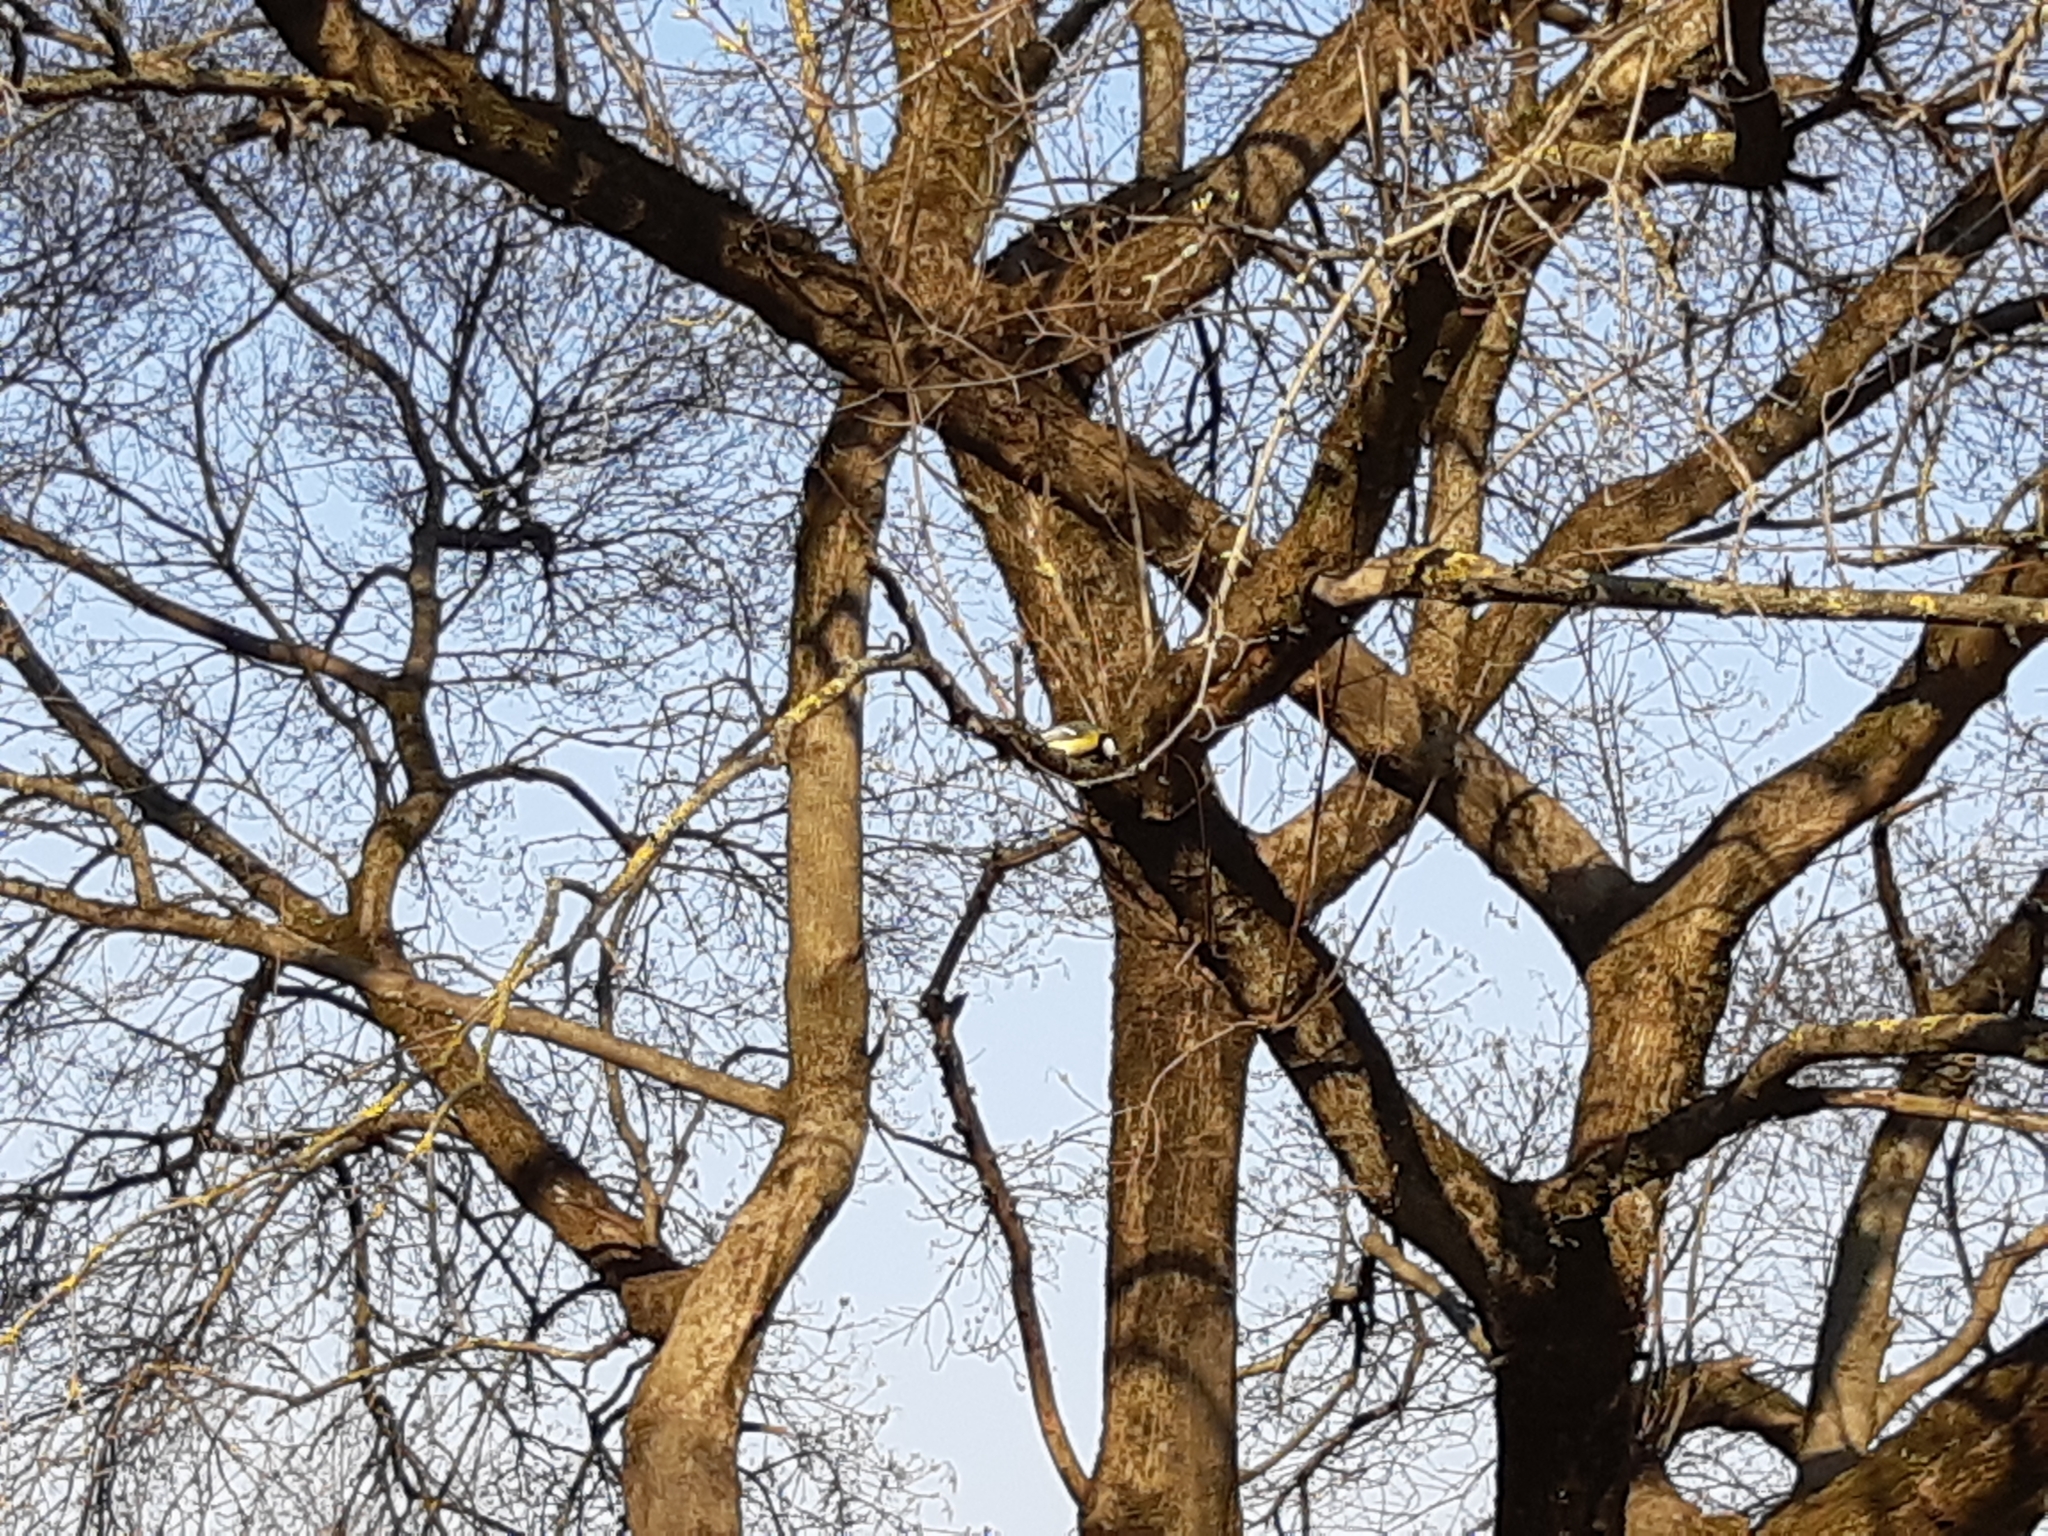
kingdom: Animalia
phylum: Chordata
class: Aves
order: Passeriformes
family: Paridae
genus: Parus
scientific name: Parus major
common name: Great tit
